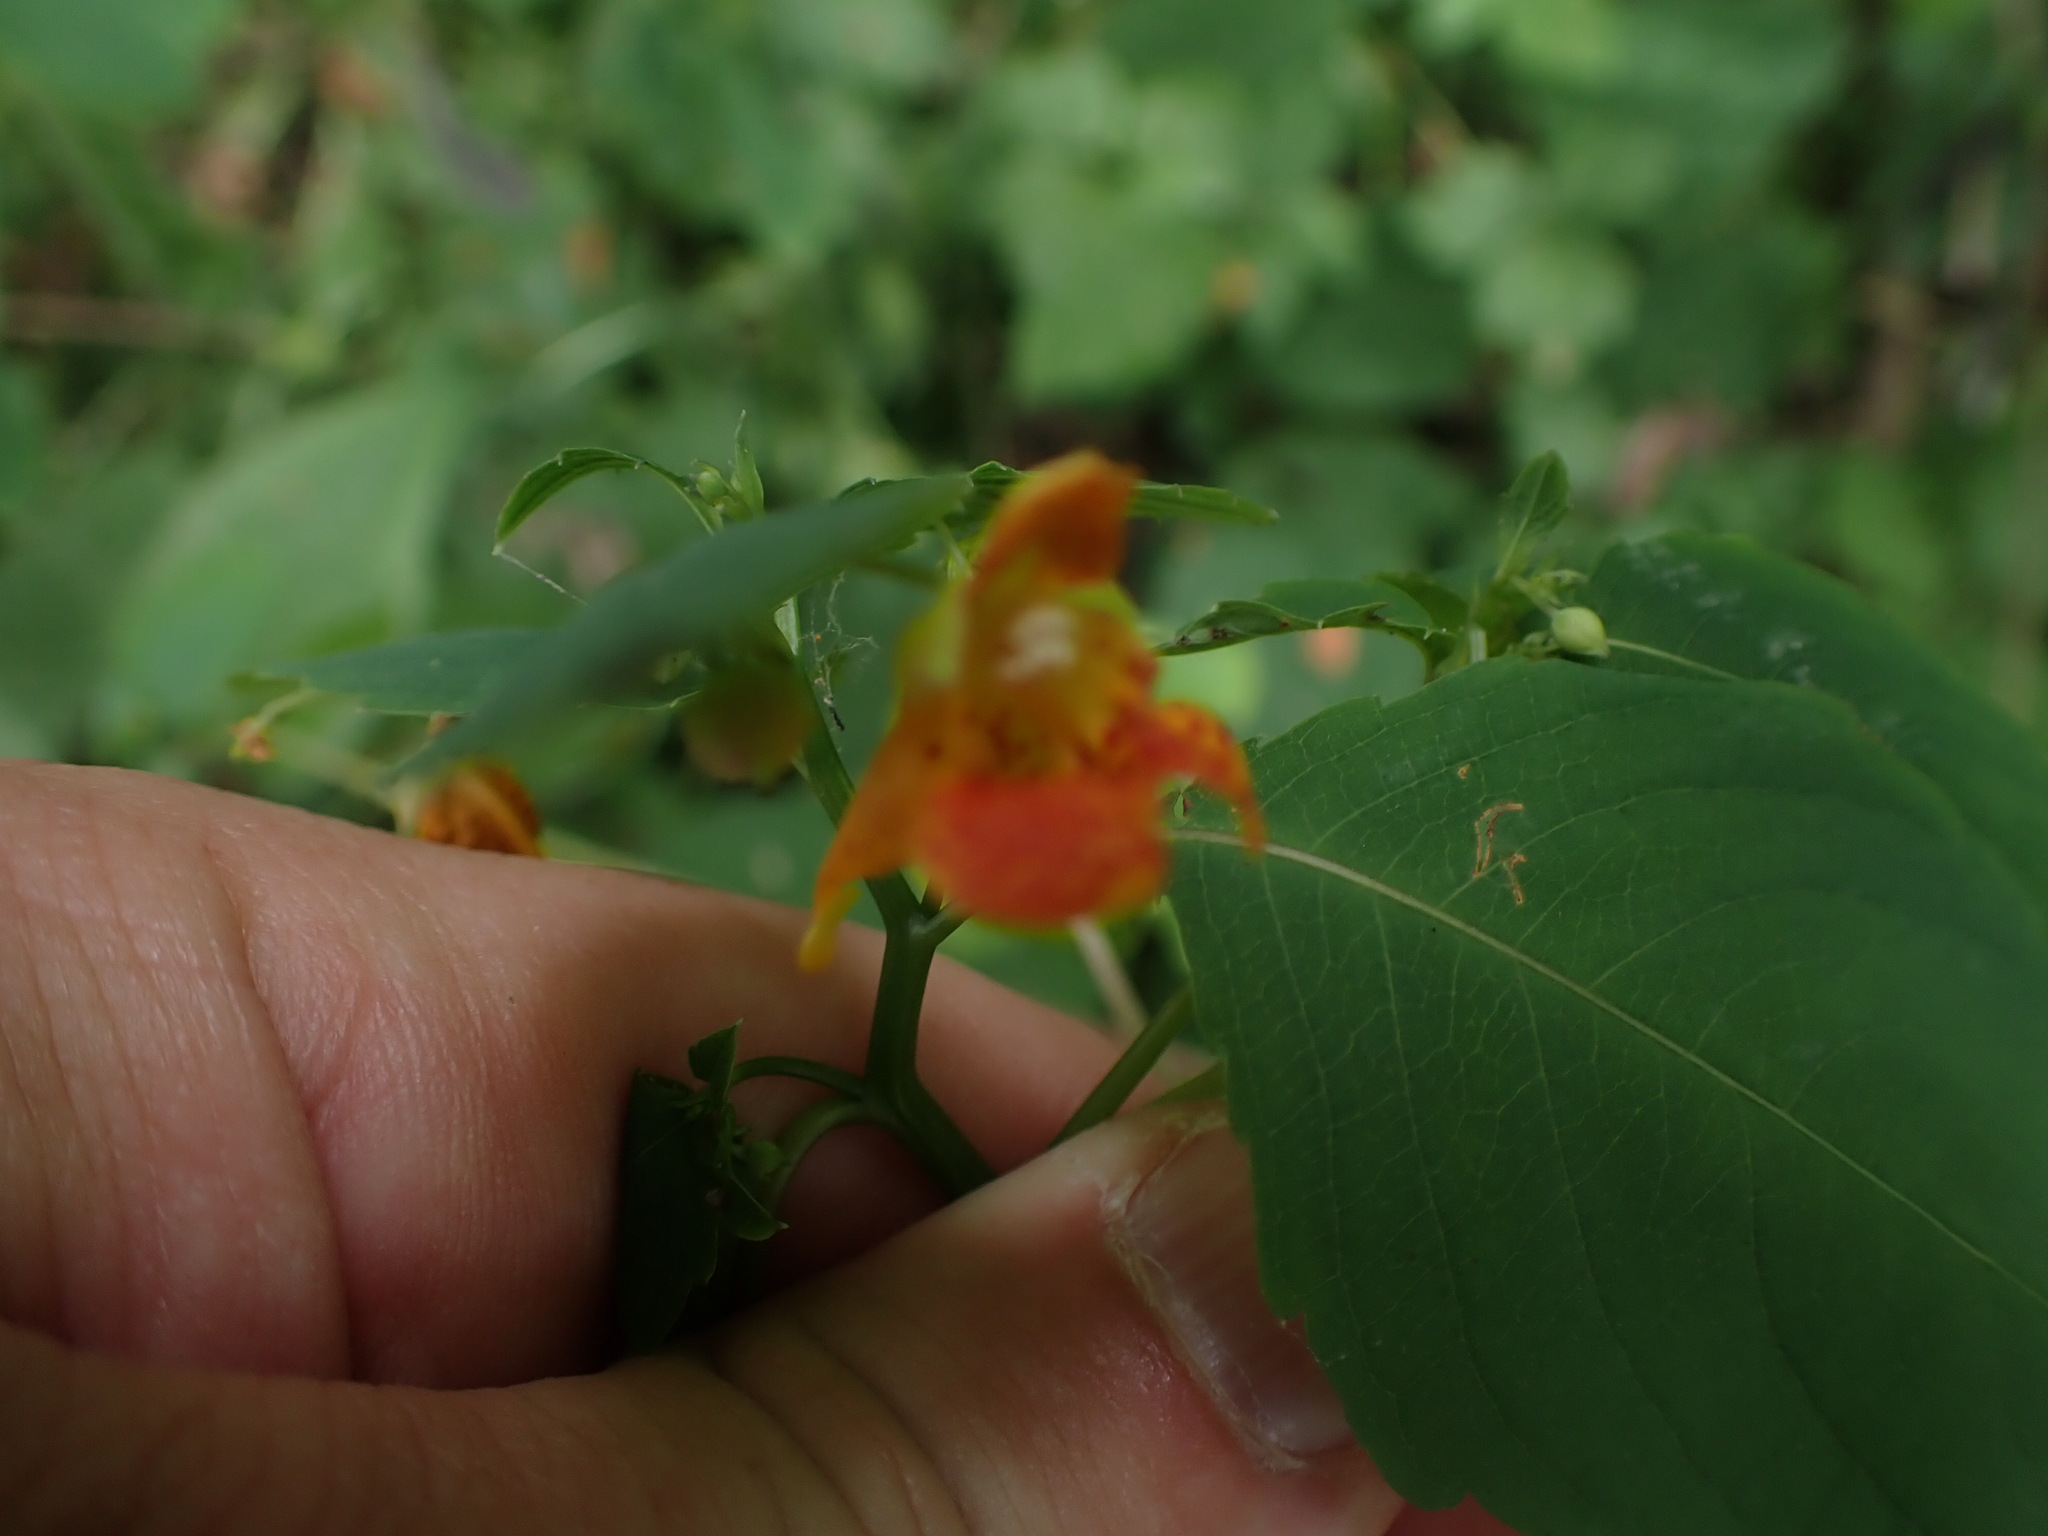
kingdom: Plantae
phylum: Tracheophyta
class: Magnoliopsida
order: Ericales
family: Balsaminaceae
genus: Impatiens
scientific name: Impatiens capensis
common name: Orange balsam
